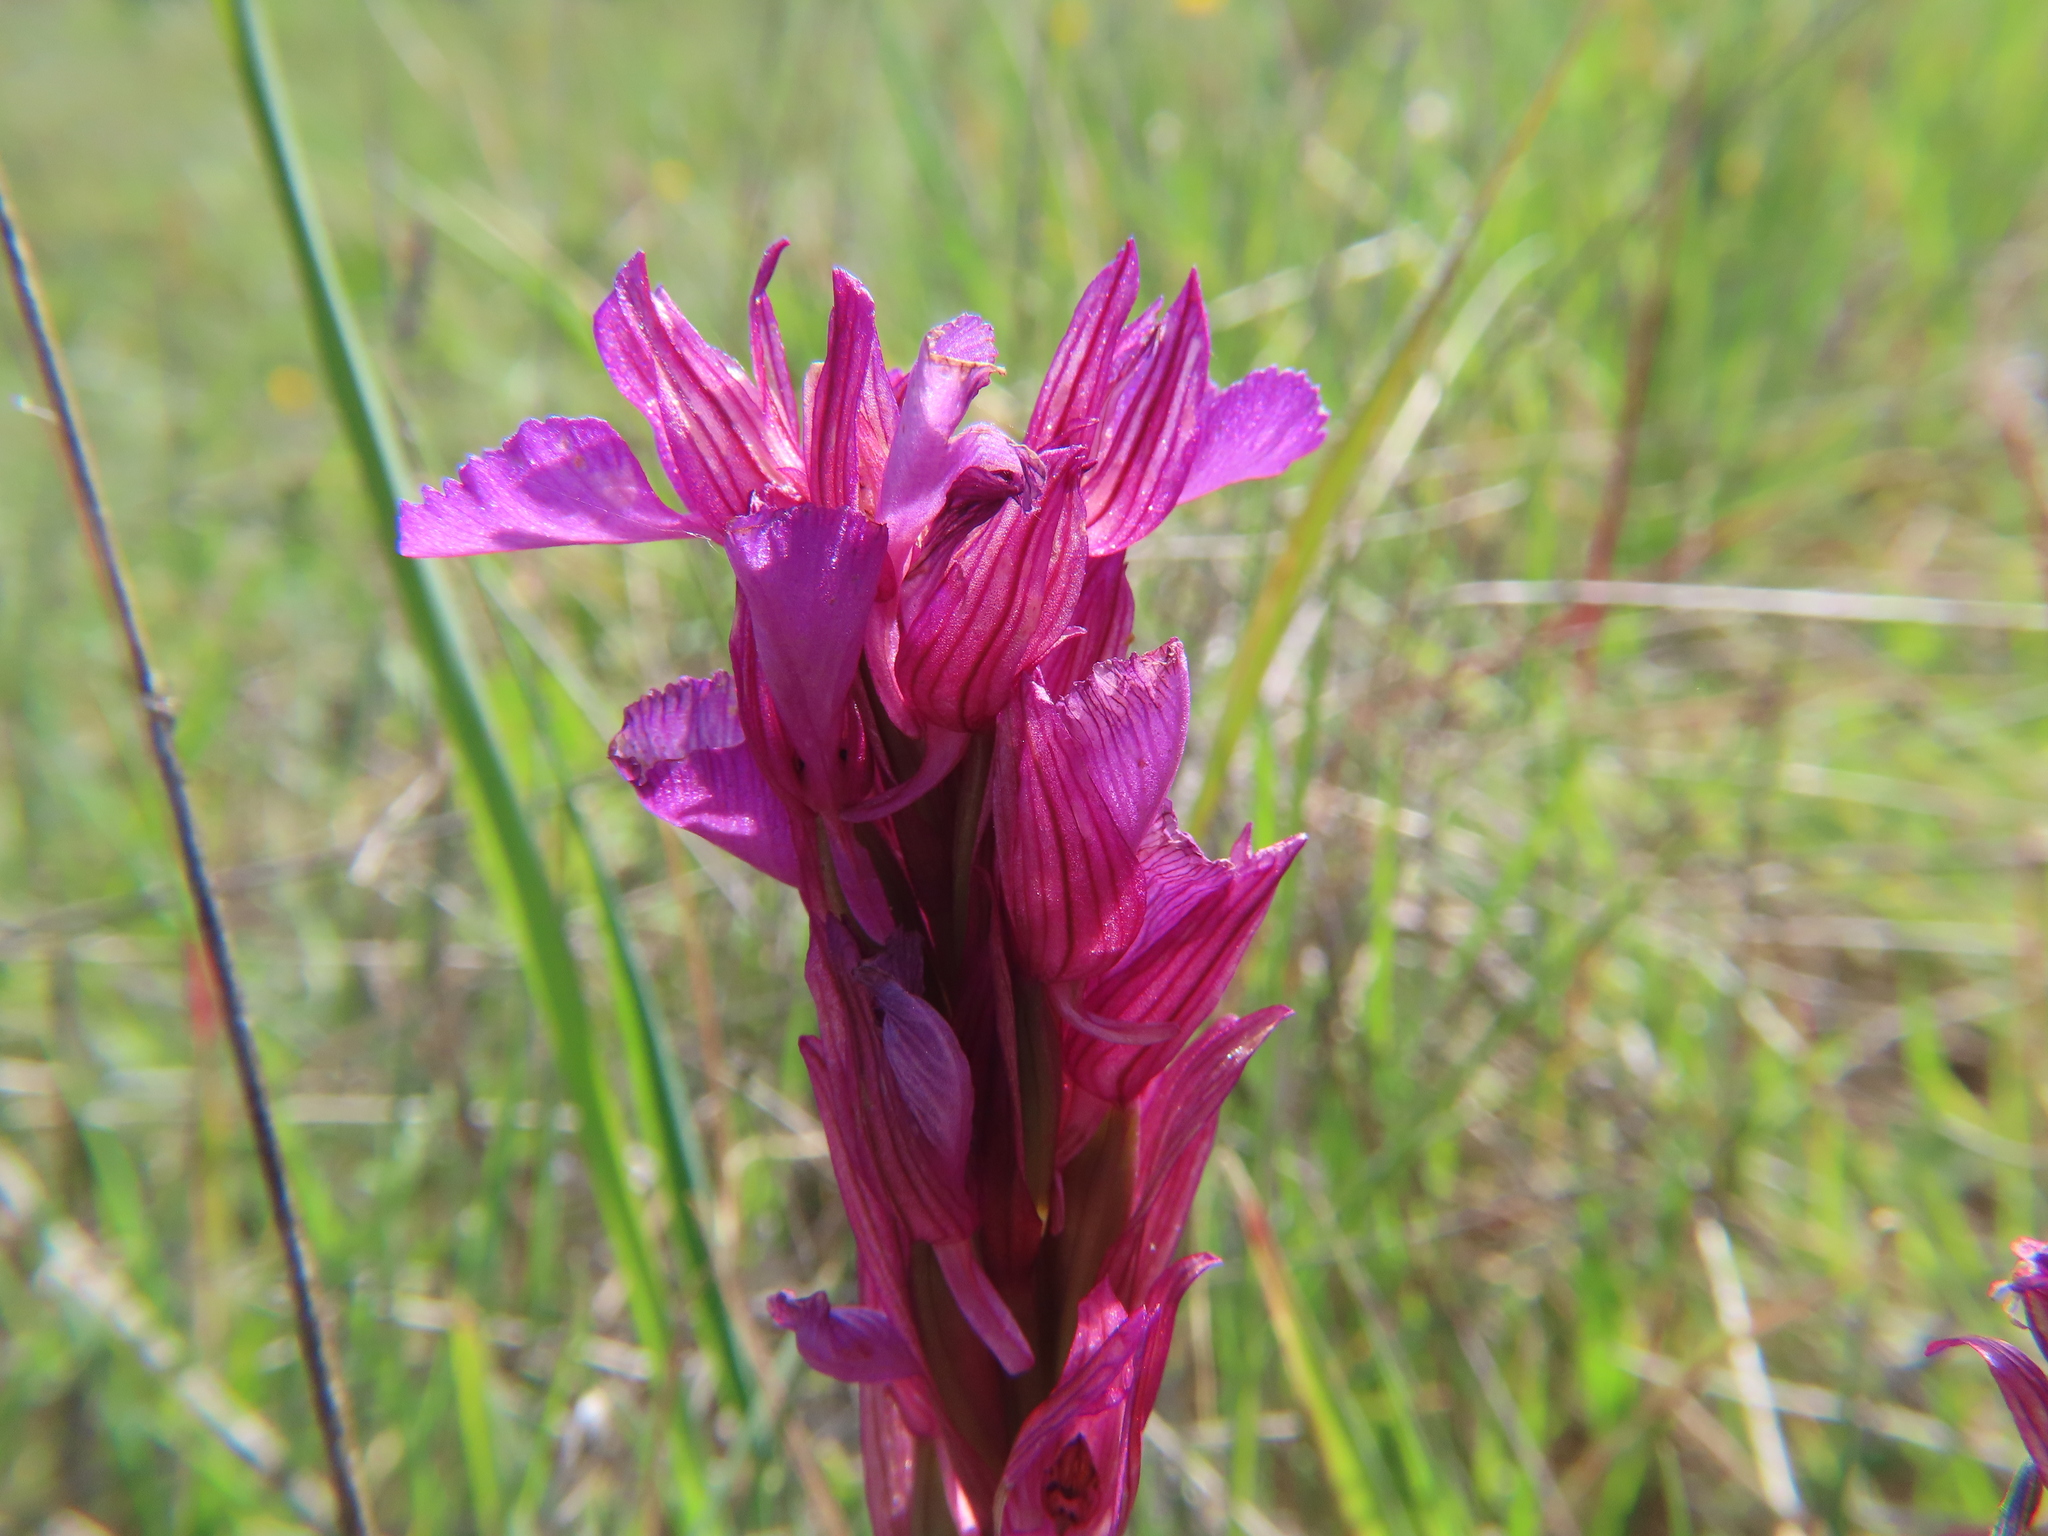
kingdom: Plantae
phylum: Tracheophyta
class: Liliopsida
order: Asparagales
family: Orchidaceae
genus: Anacamptis
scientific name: Anacamptis papilionacea
